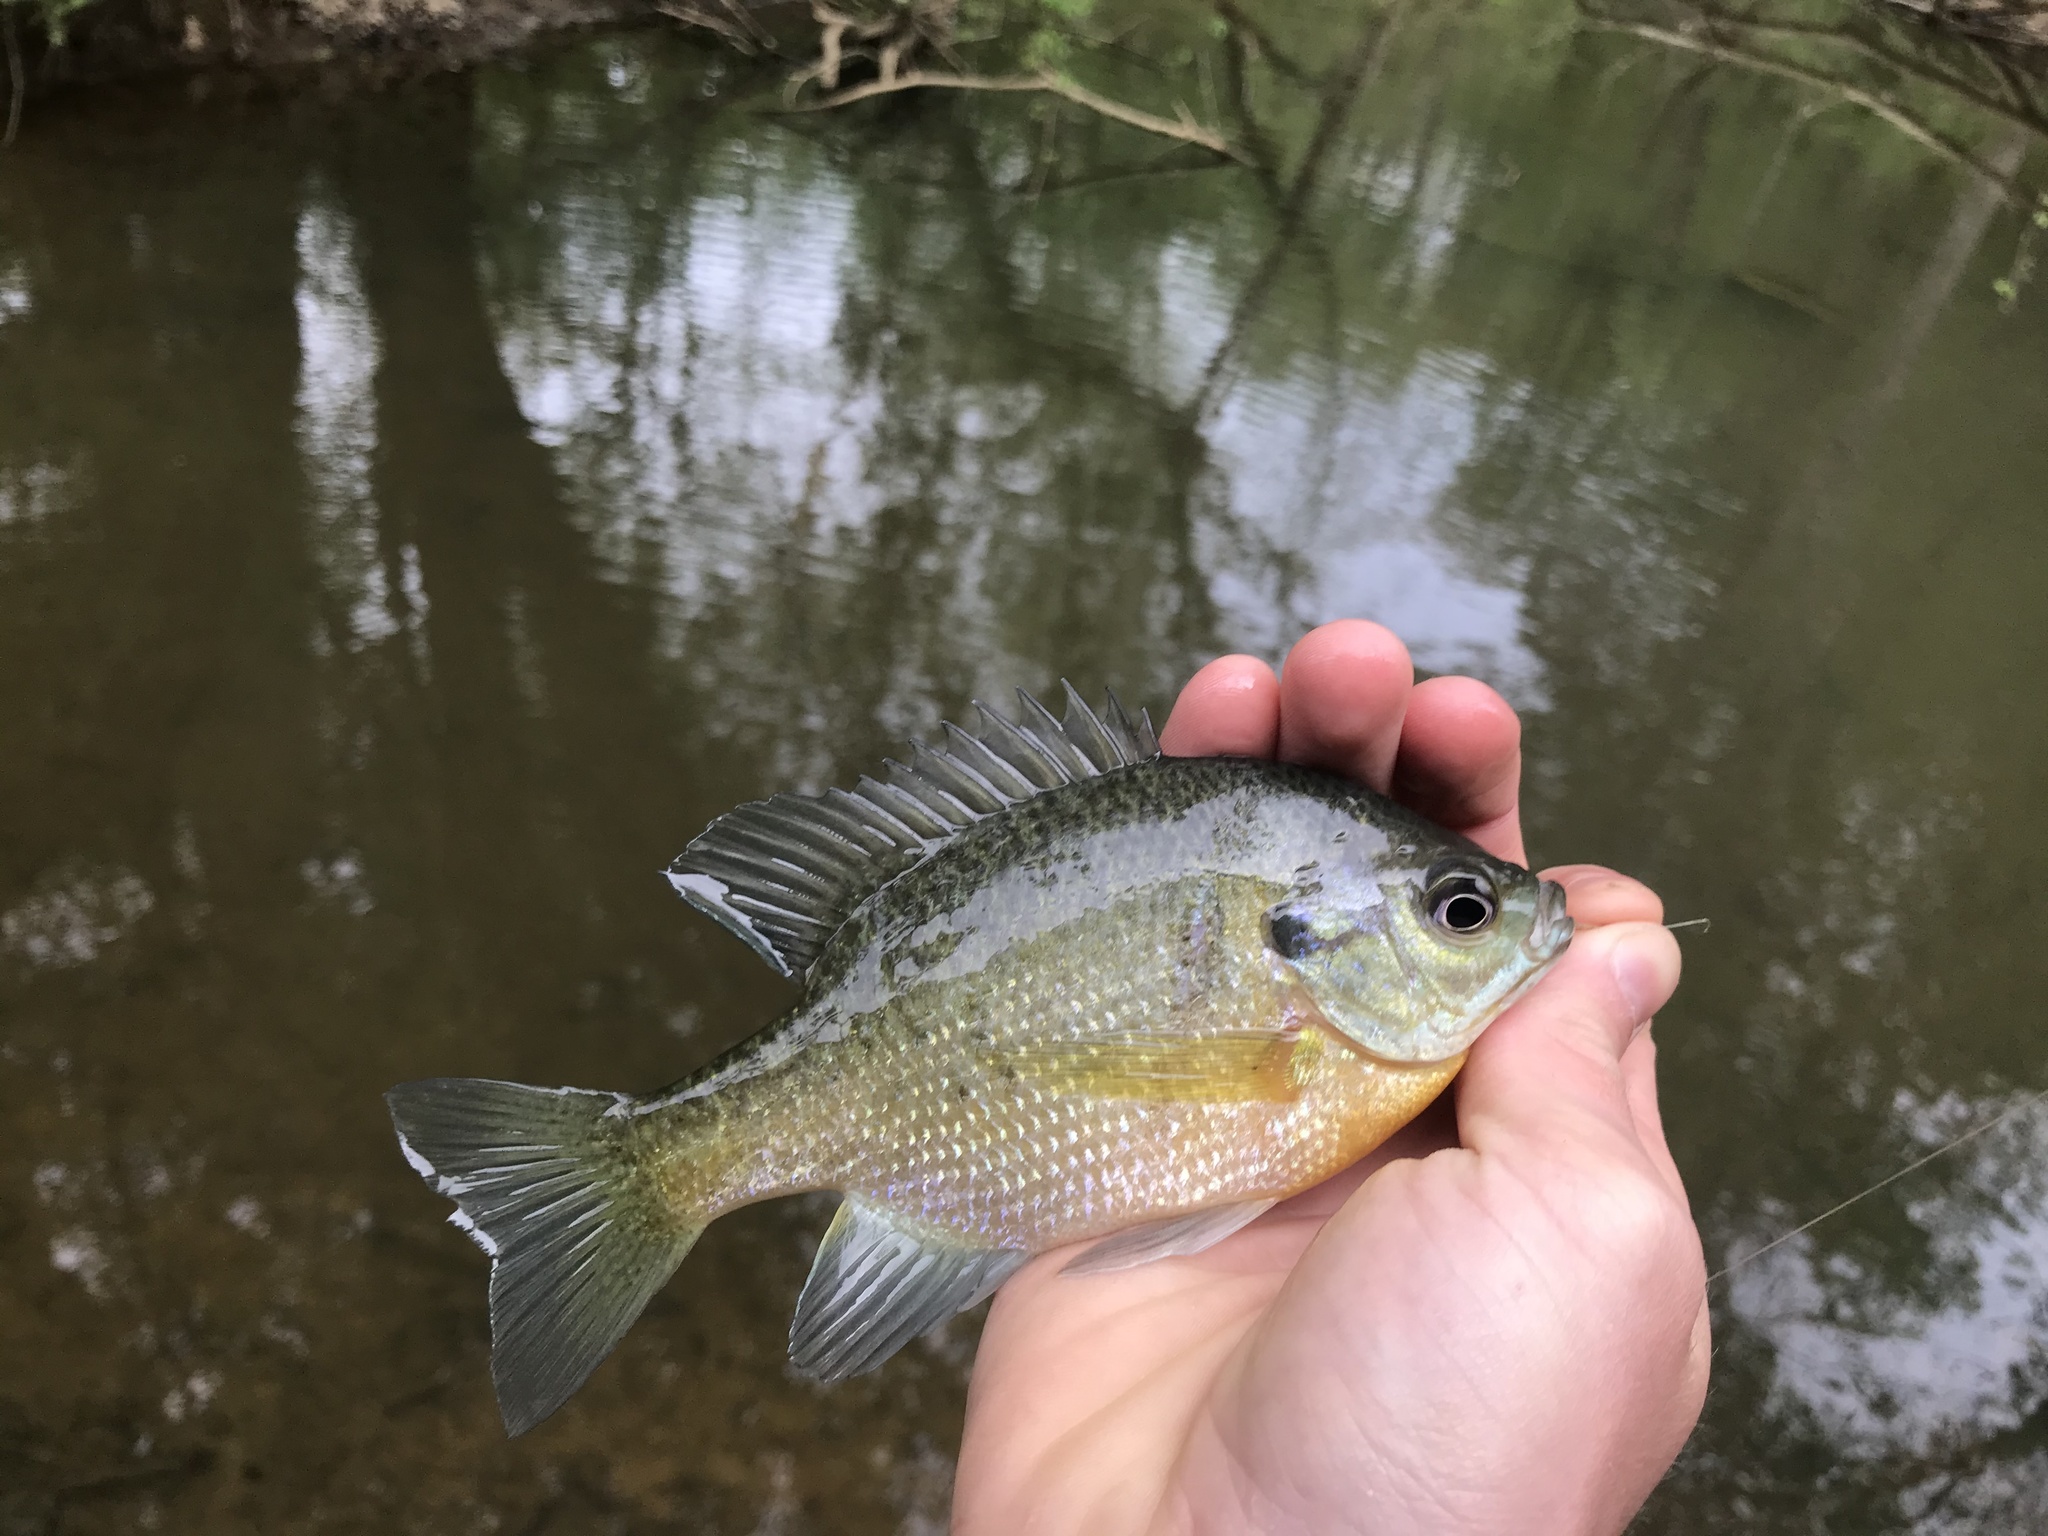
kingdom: Animalia
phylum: Chordata
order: Perciformes
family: Centrarchidae
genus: Lepomis
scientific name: Lepomis macrochirus
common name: Bluegill
